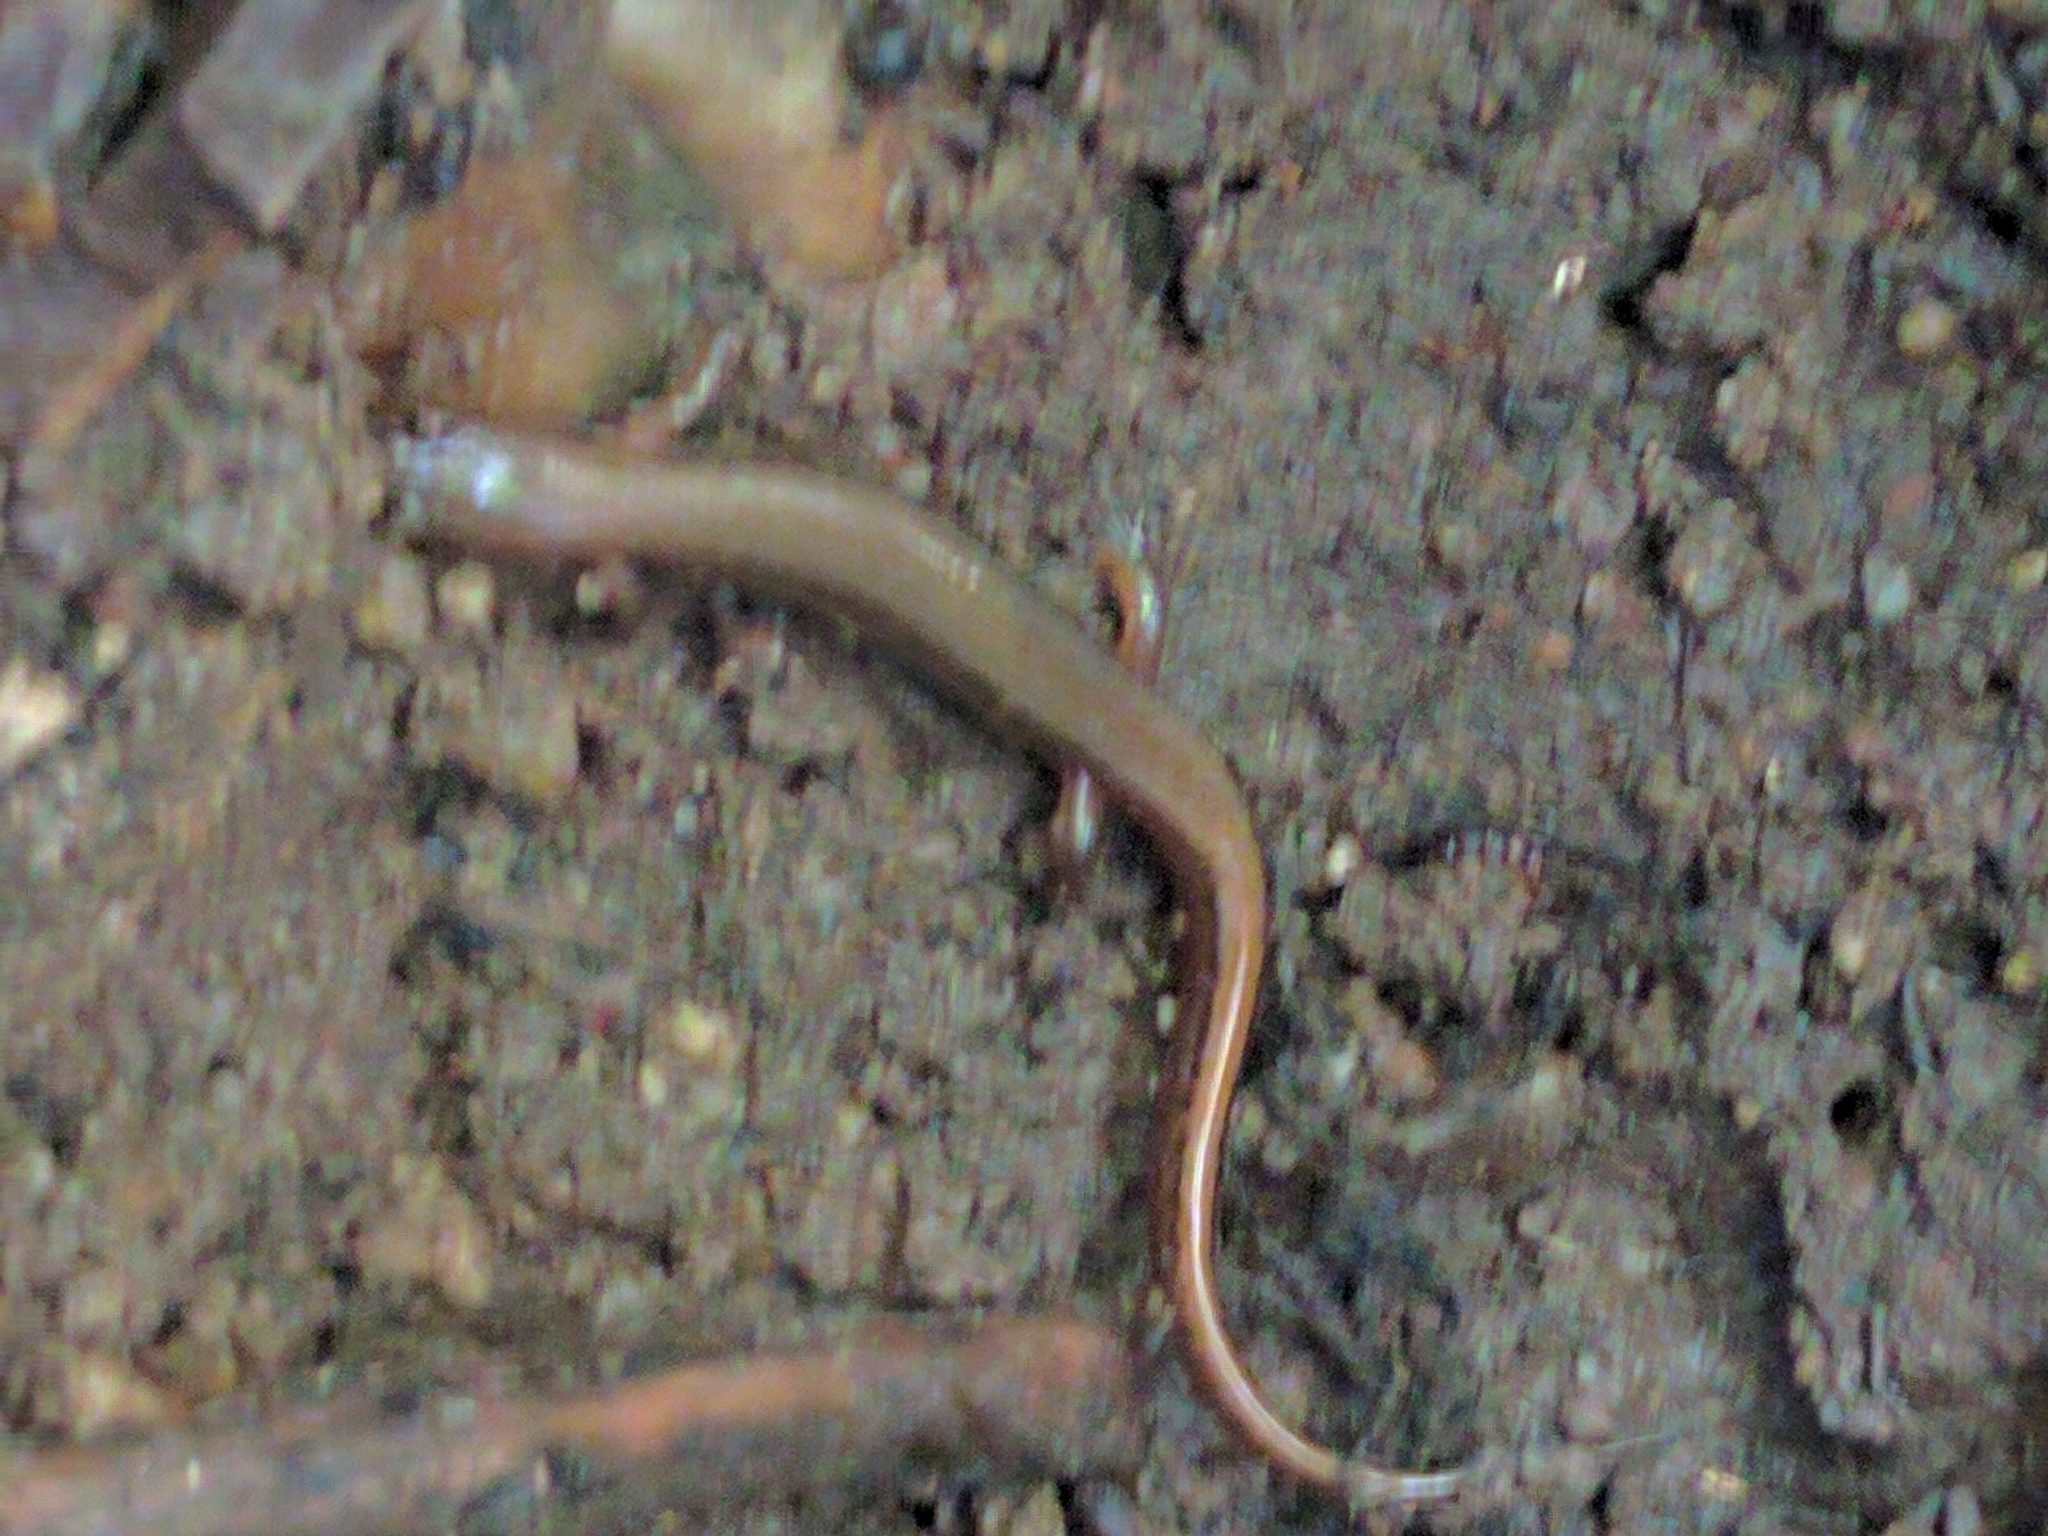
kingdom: Animalia
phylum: Chordata
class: Amphibia
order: Caudata
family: Plethodontidae
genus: Eurycea
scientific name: Eurycea bislineata
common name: Northern two-lined salamander
